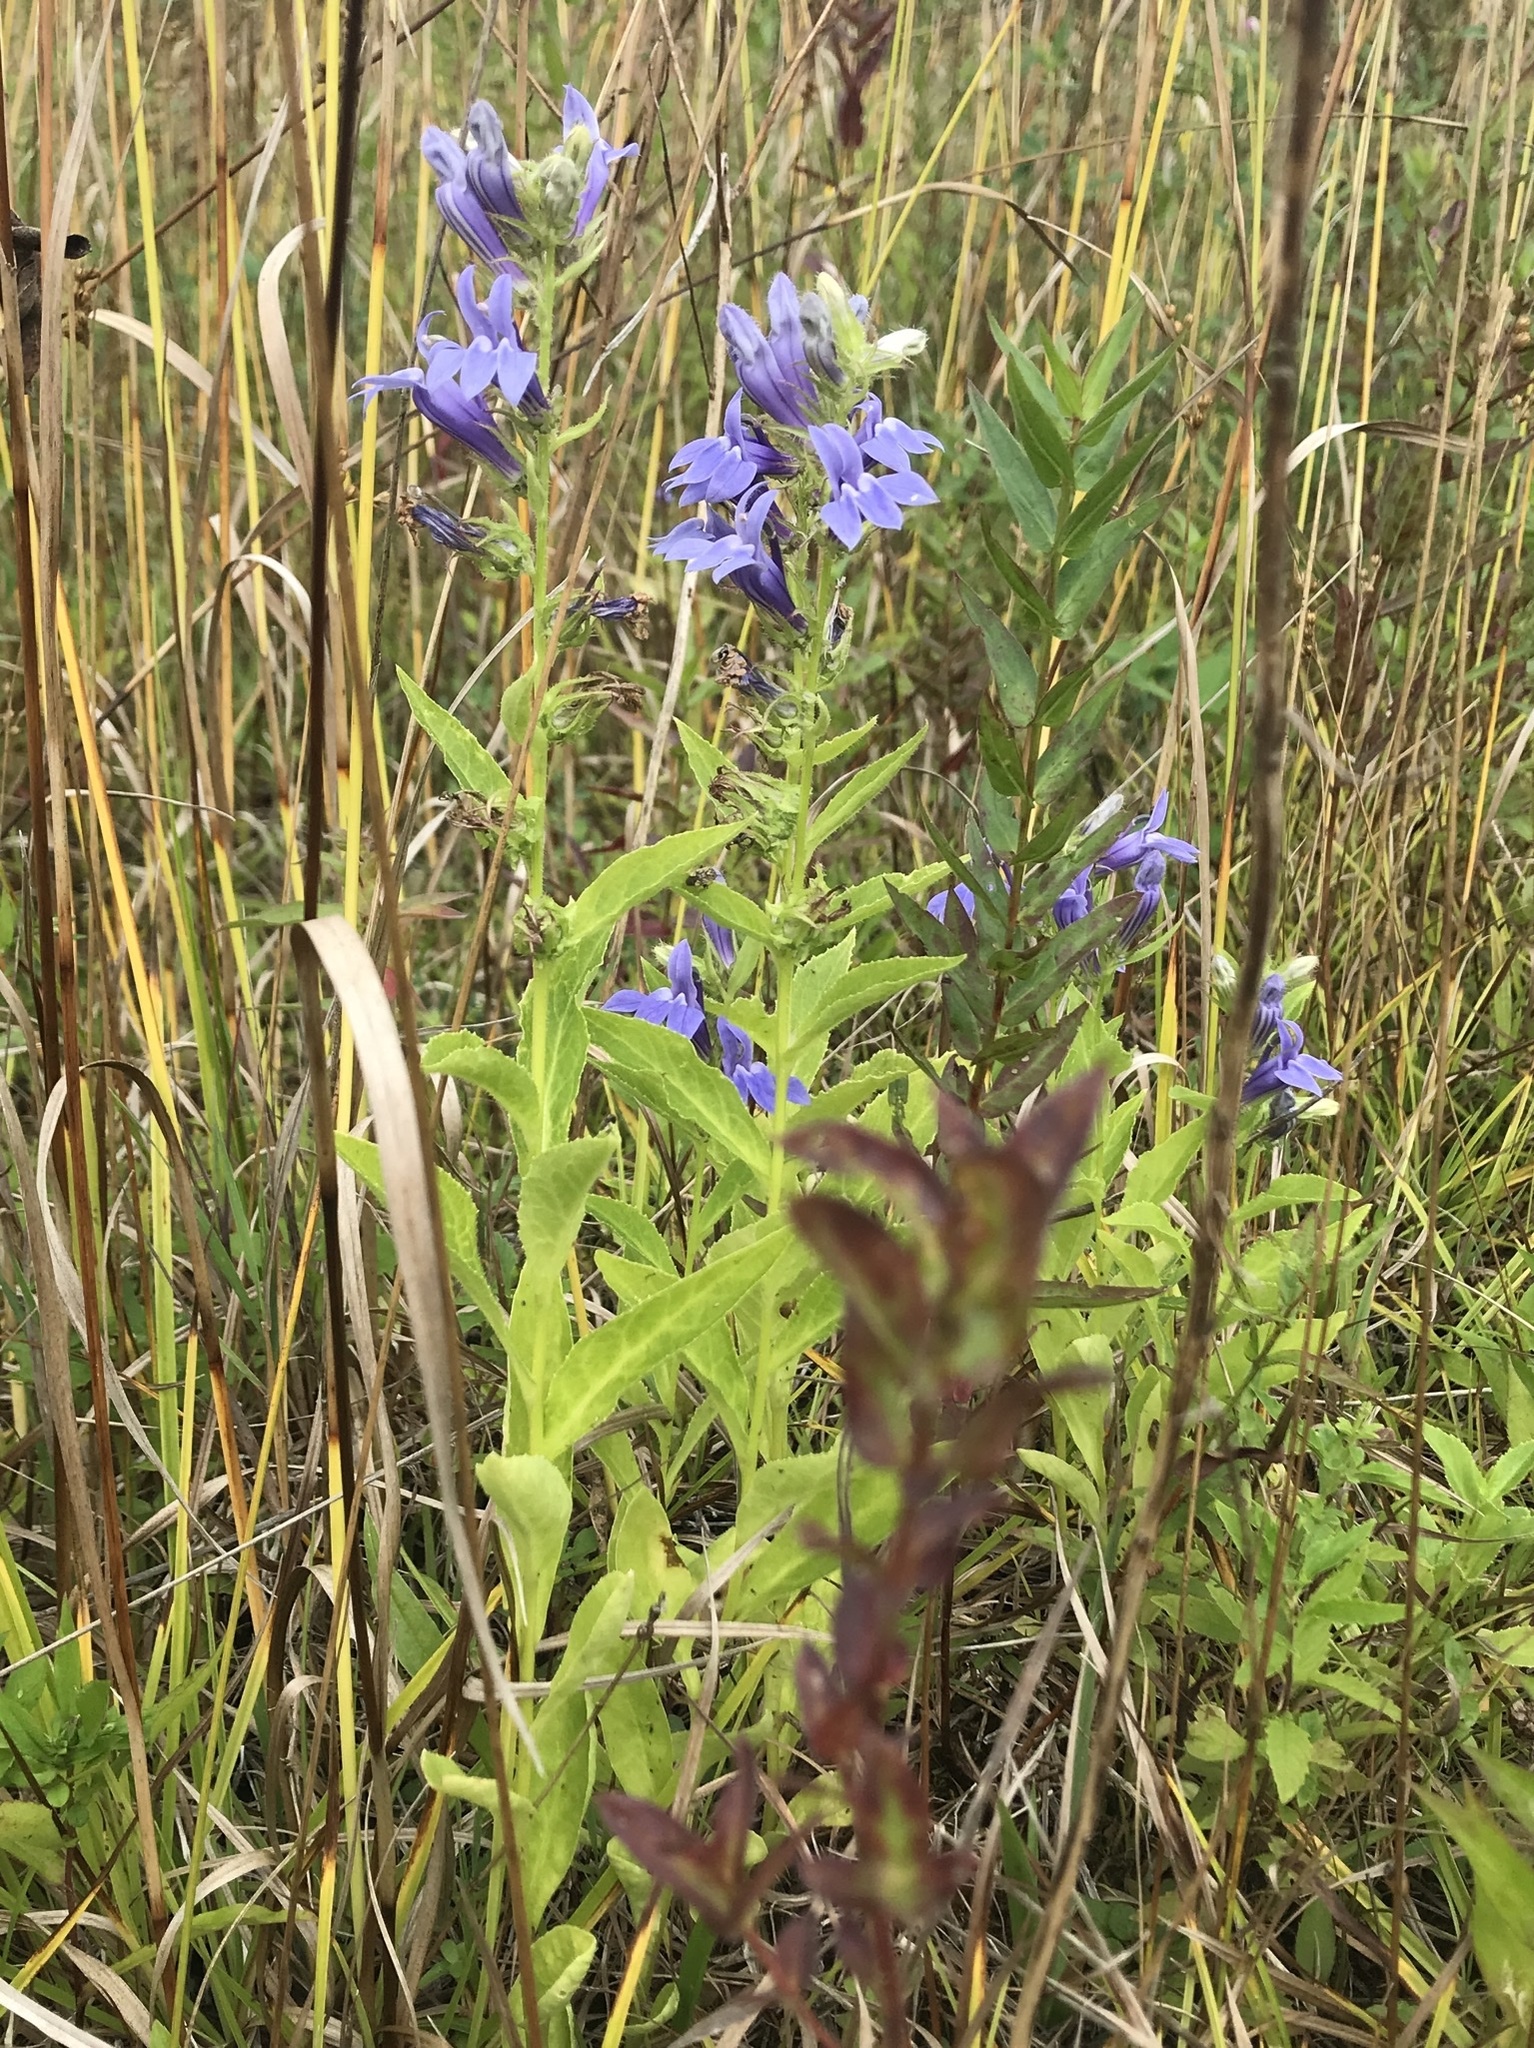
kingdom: Plantae
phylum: Tracheophyta
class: Magnoliopsida
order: Asterales
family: Campanulaceae
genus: Lobelia
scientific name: Lobelia siphilitica
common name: Great lobelia
